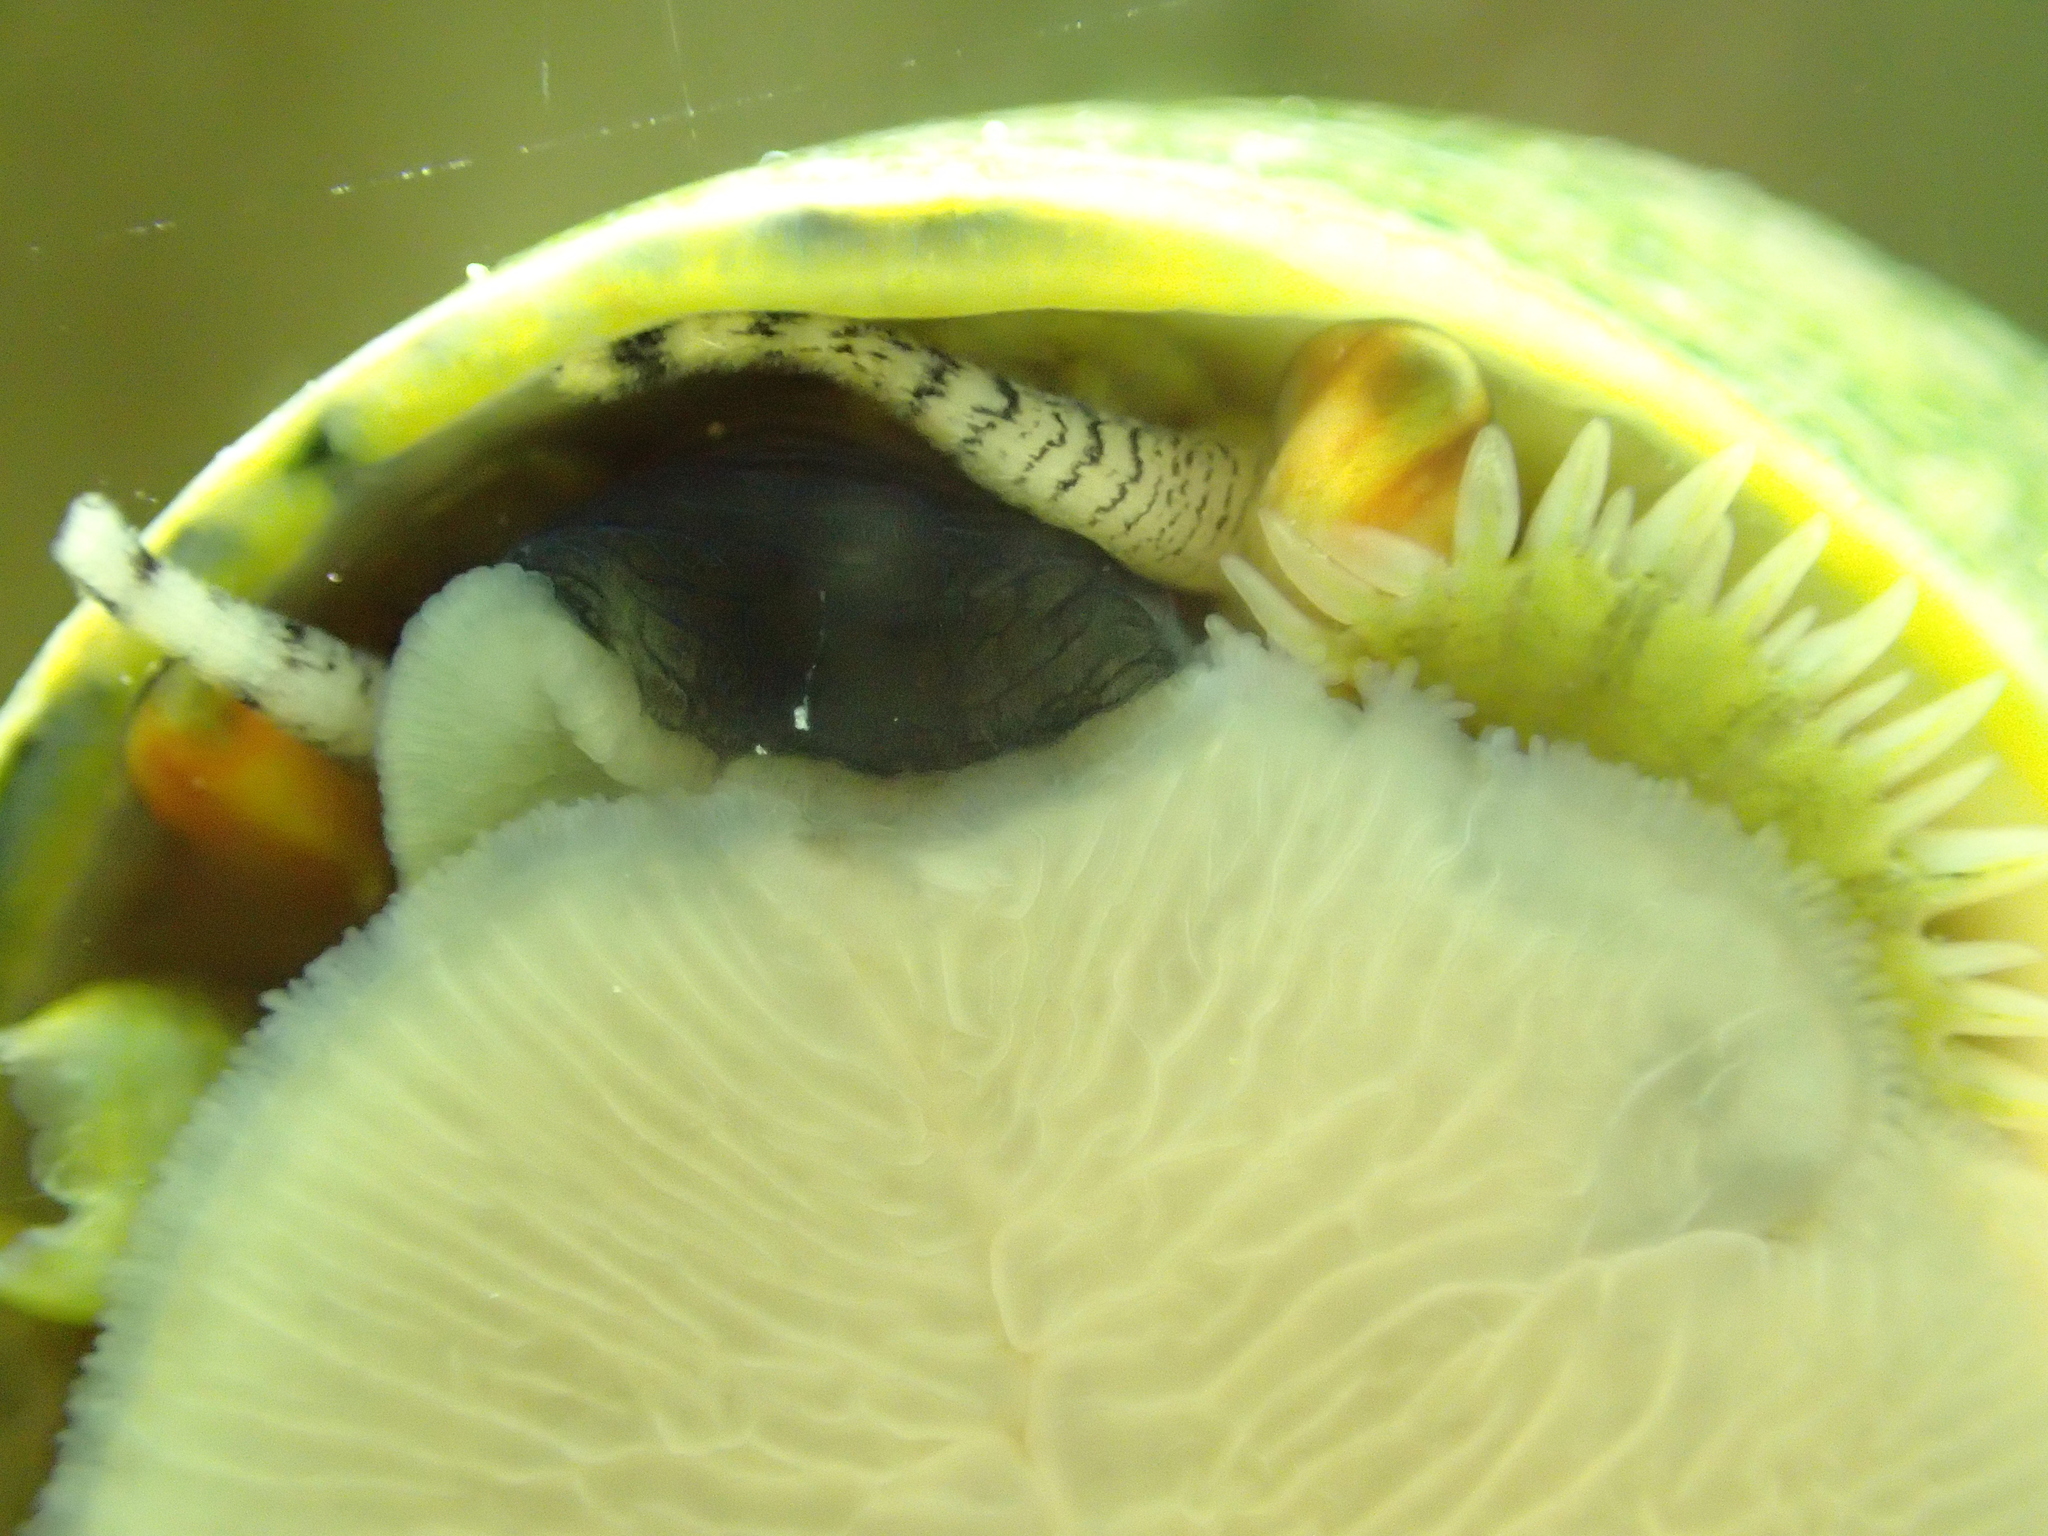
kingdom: Animalia
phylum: Mollusca
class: Gastropoda
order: Trochida
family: Trochidae
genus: Phorcus
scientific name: Phorcus lineatus
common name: Toothed top shell
